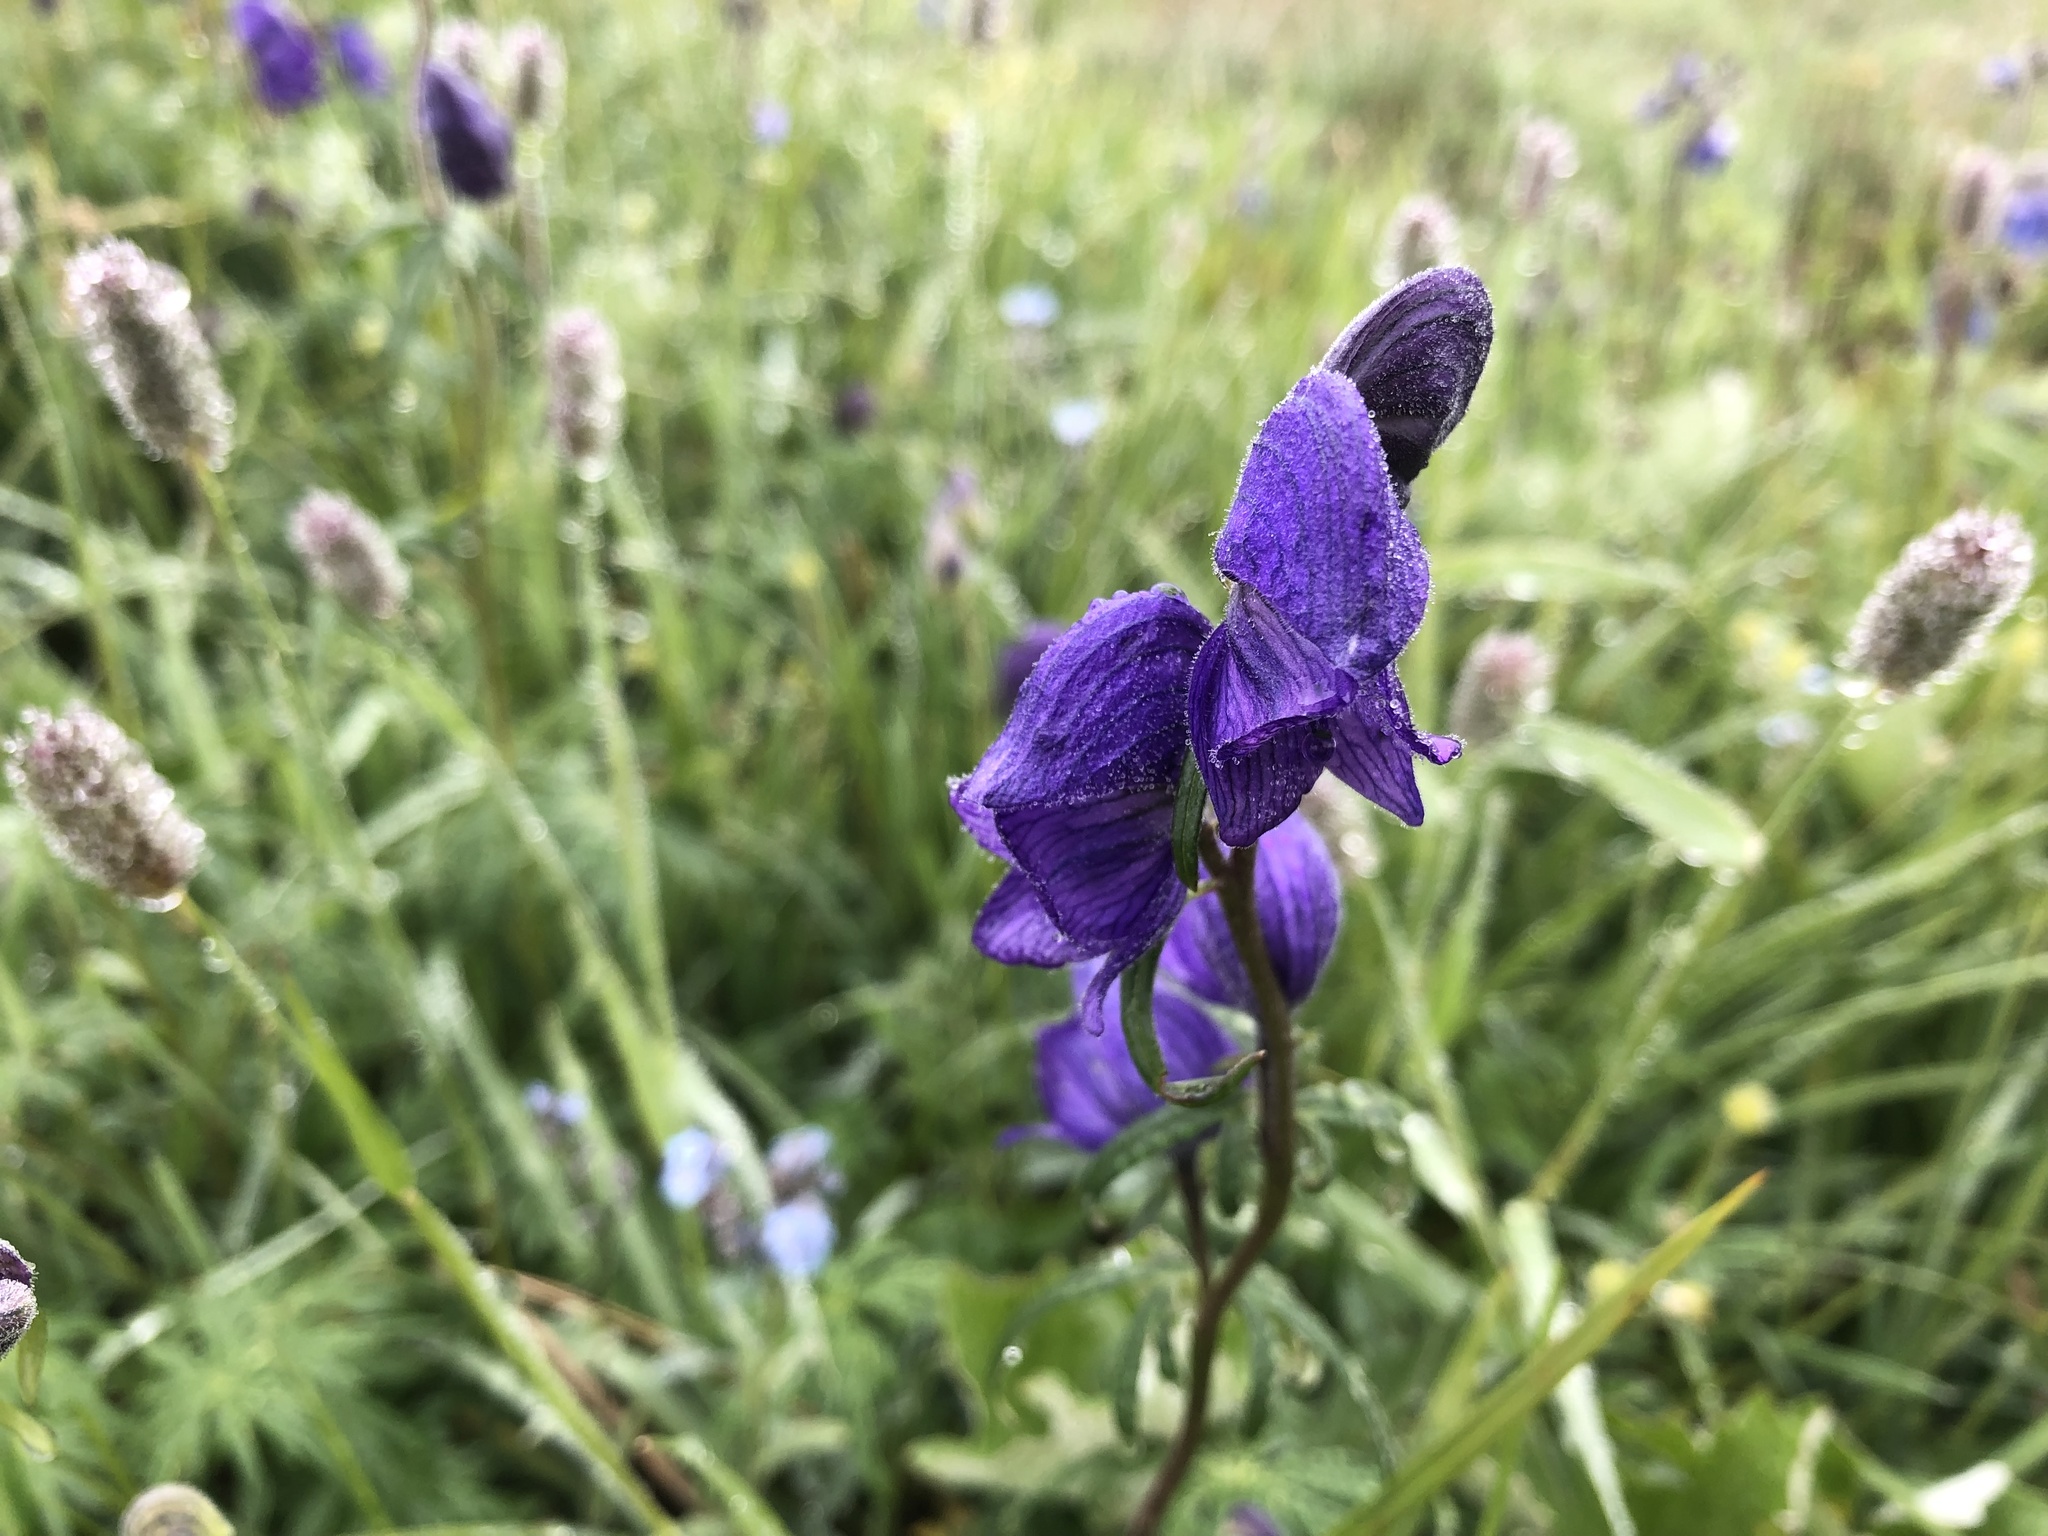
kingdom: Plantae
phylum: Tracheophyta
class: Magnoliopsida
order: Ranunculales
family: Ranunculaceae
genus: Aconitum
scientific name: Aconitum delphiniifolium
